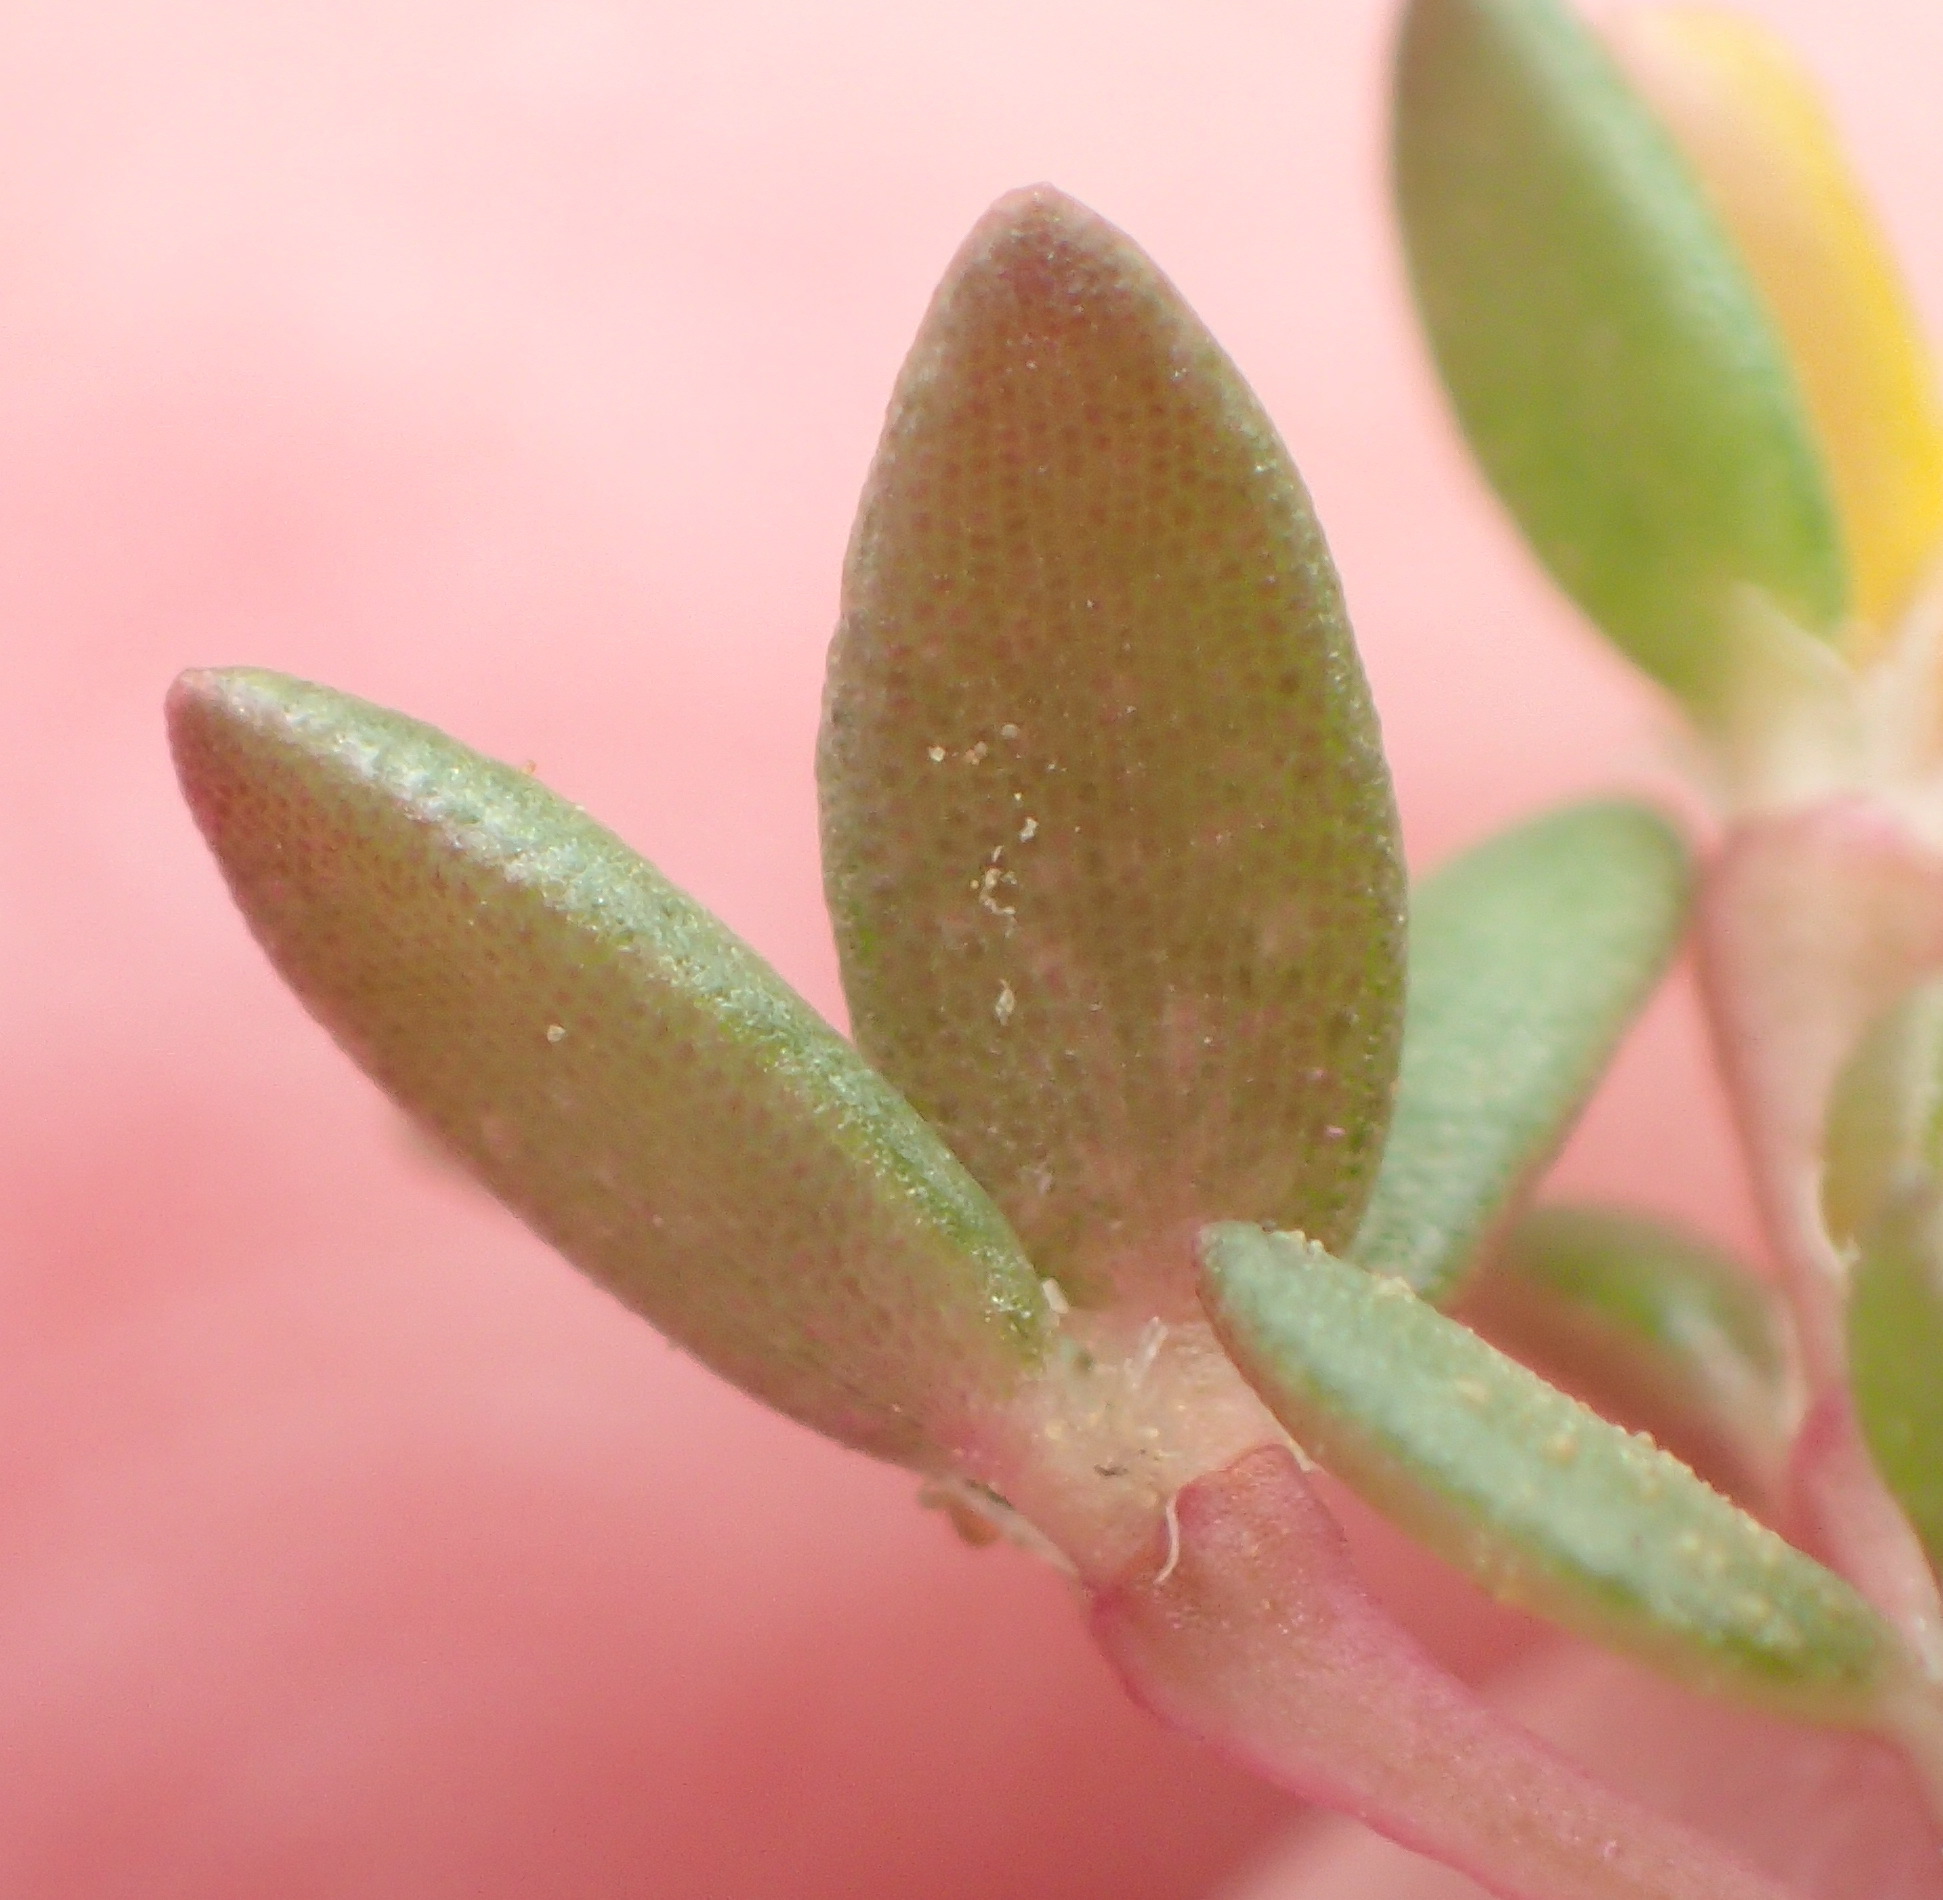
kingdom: Plantae
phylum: Tracheophyta
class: Magnoliopsida
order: Caryophyllales
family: Portulacaceae
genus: Portulaca
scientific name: Portulaca quadrifida
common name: Chickenweed
